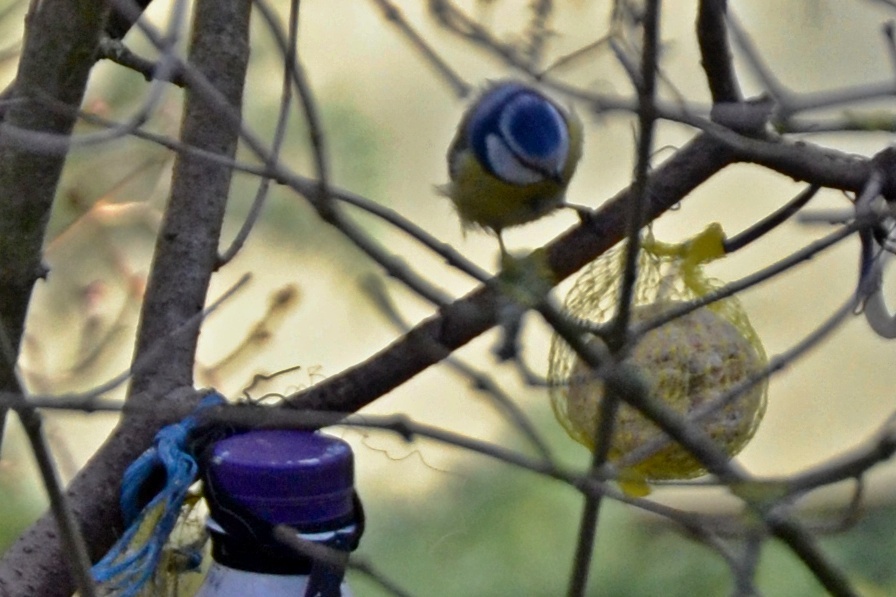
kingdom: Animalia
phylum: Chordata
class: Aves
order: Passeriformes
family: Paridae
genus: Cyanistes
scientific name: Cyanistes caeruleus
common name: Eurasian blue tit
